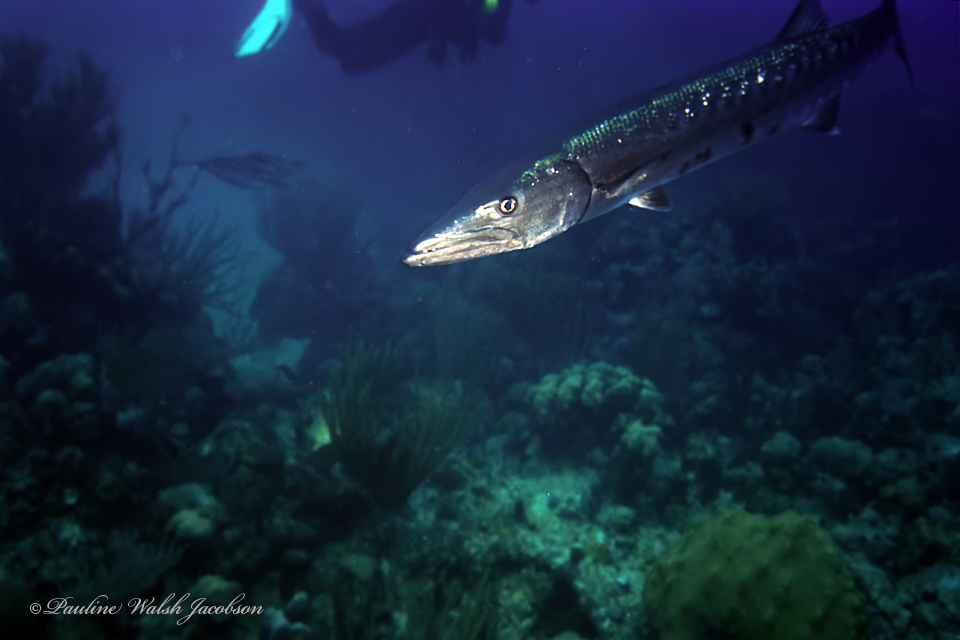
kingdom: Animalia
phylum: Chordata
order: Perciformes
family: Sphyraenidae
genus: Sphyraena
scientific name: Sphyraena barracuda
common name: Great barracuda
